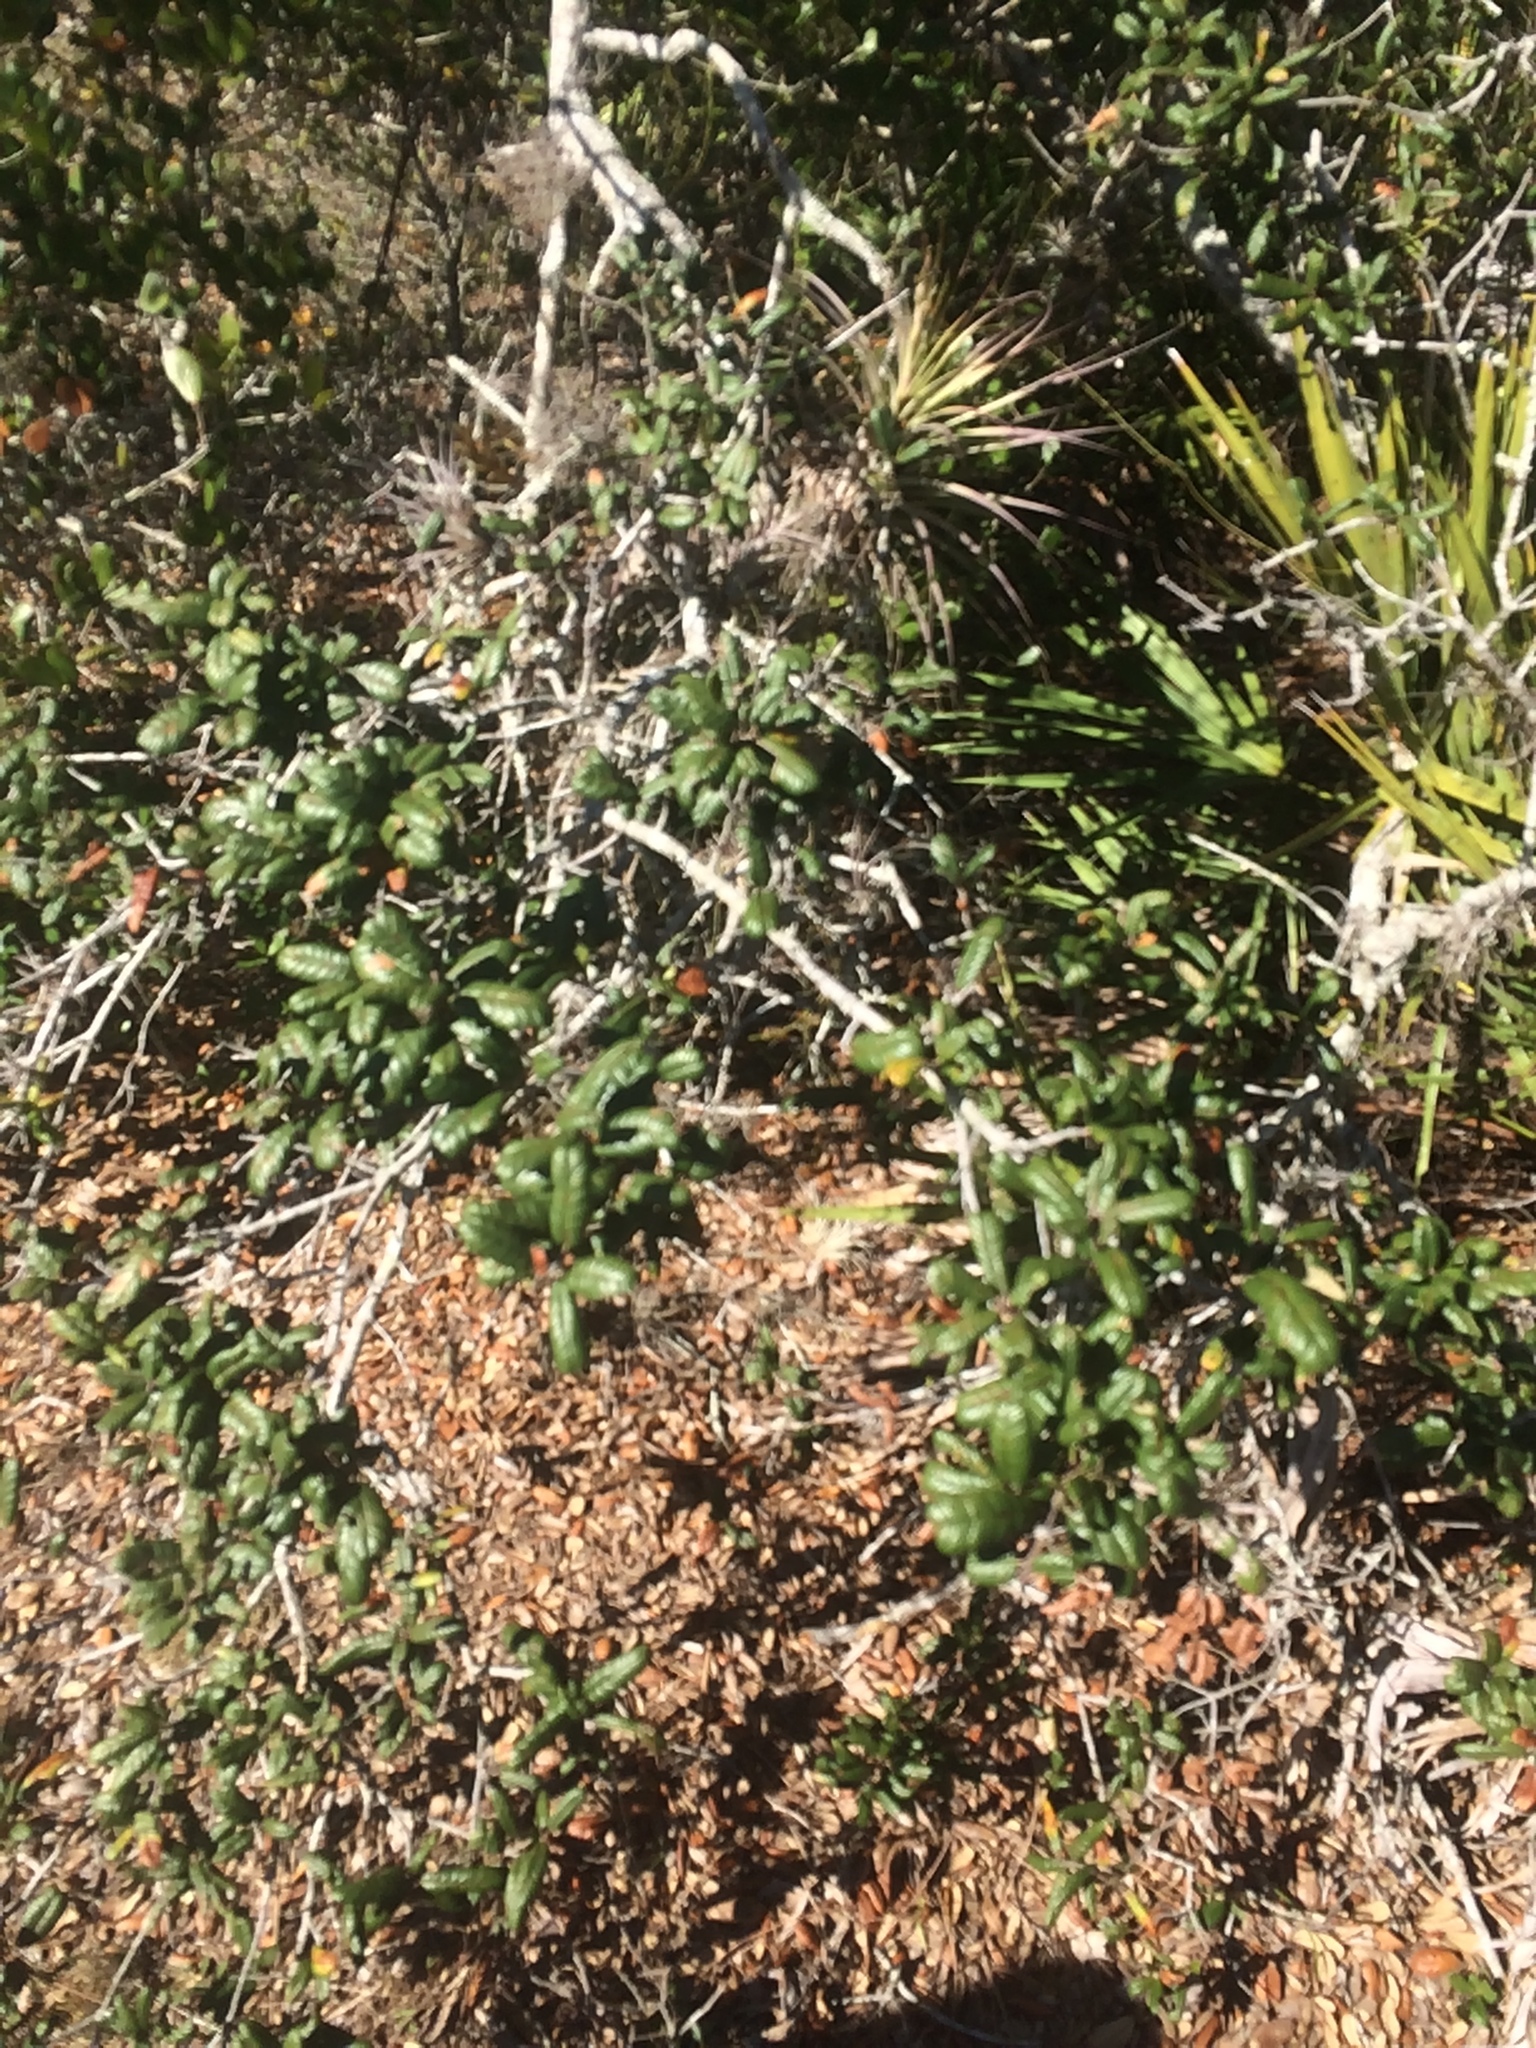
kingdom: Plantae
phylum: Tracheophyta
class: Magnoliopsida
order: Fagales
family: Fagaceae
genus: Quercus
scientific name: Quercus geminata
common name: Sand live oak
